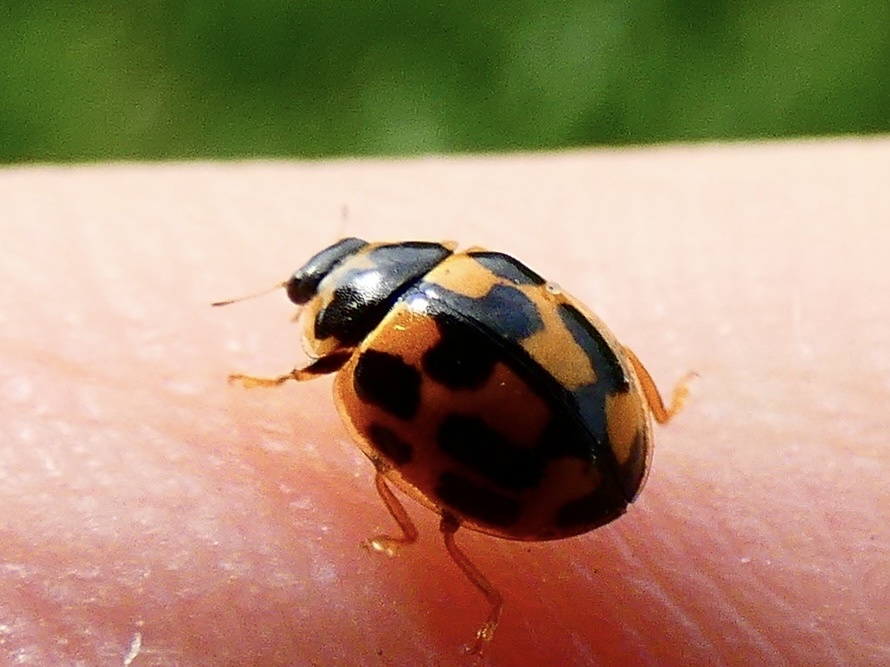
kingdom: Animalia
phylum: Arthropoda
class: Insecta
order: Coleoptera
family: Coccinellidae
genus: Propylaea
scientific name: Propylaea quatuordecimpunctata
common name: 14-spotted ladybird beetle
